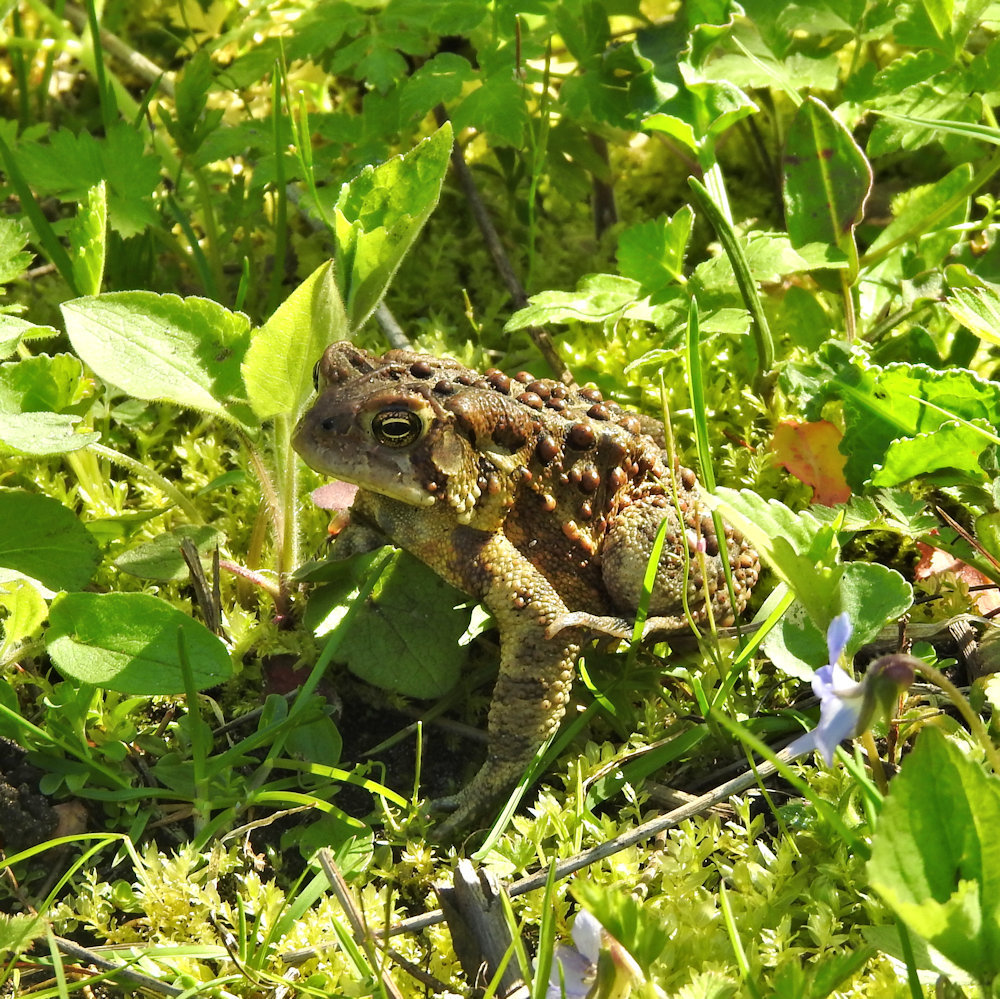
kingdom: Animalia
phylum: Chordata
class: Amphibia
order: Anura
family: Bufonidae
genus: Anaxyrus
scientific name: Anaxyrus americanus
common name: American toad
